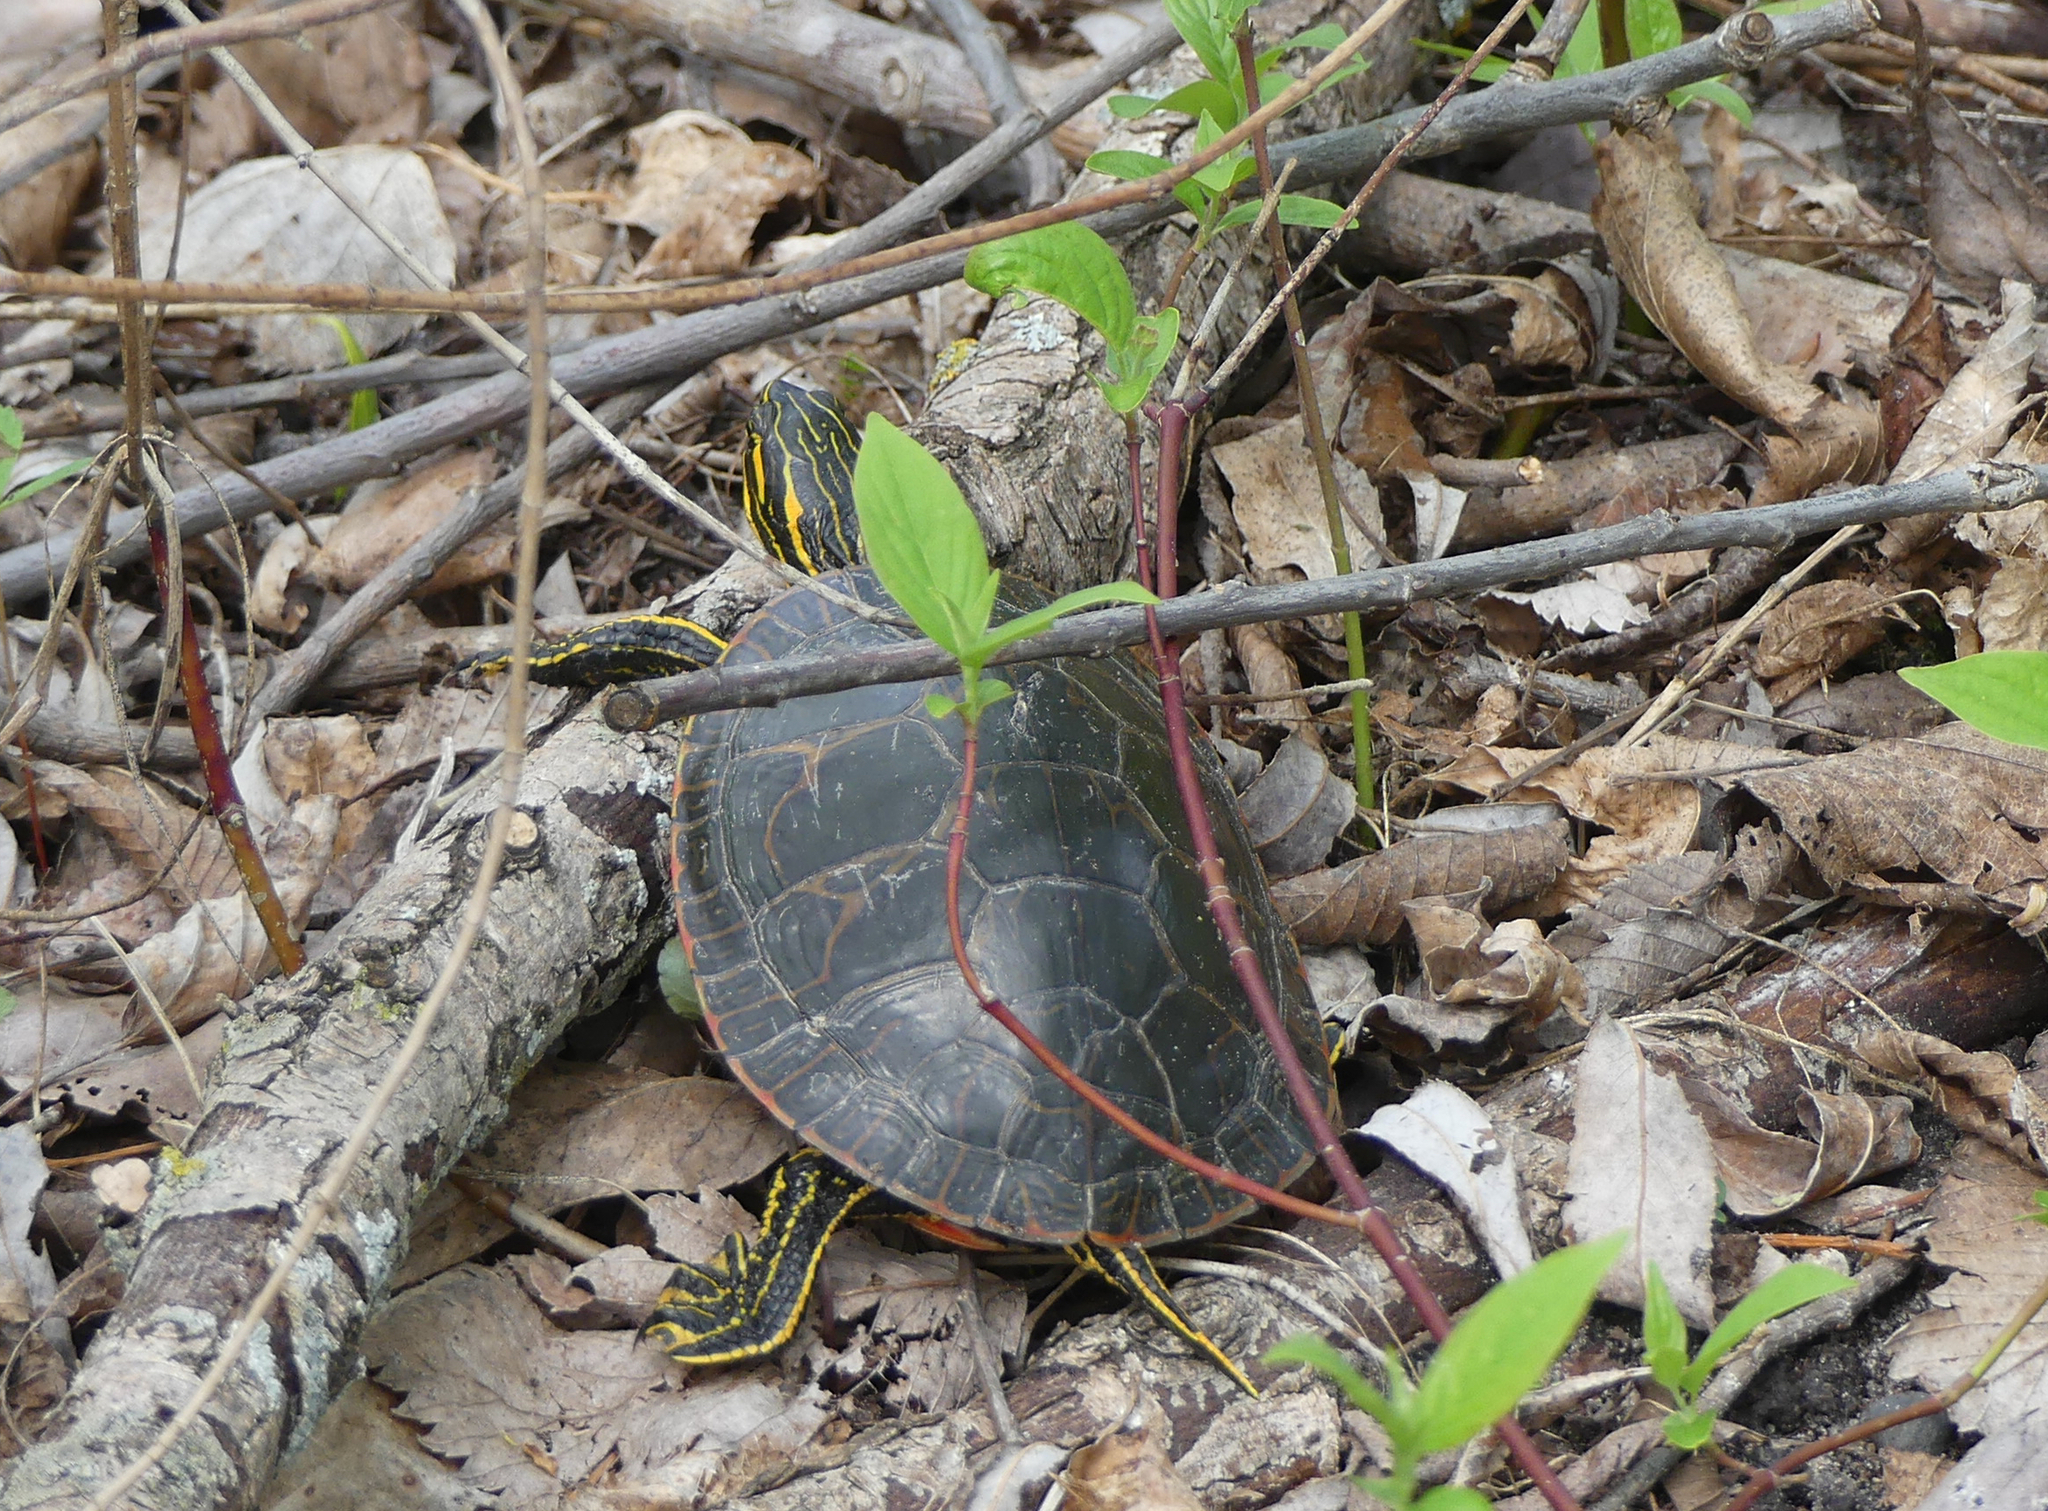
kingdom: Animalia
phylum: Chordata
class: Testudines
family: Emydidae
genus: Chrysemys
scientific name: Chrysemys picta
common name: Painted turtle
